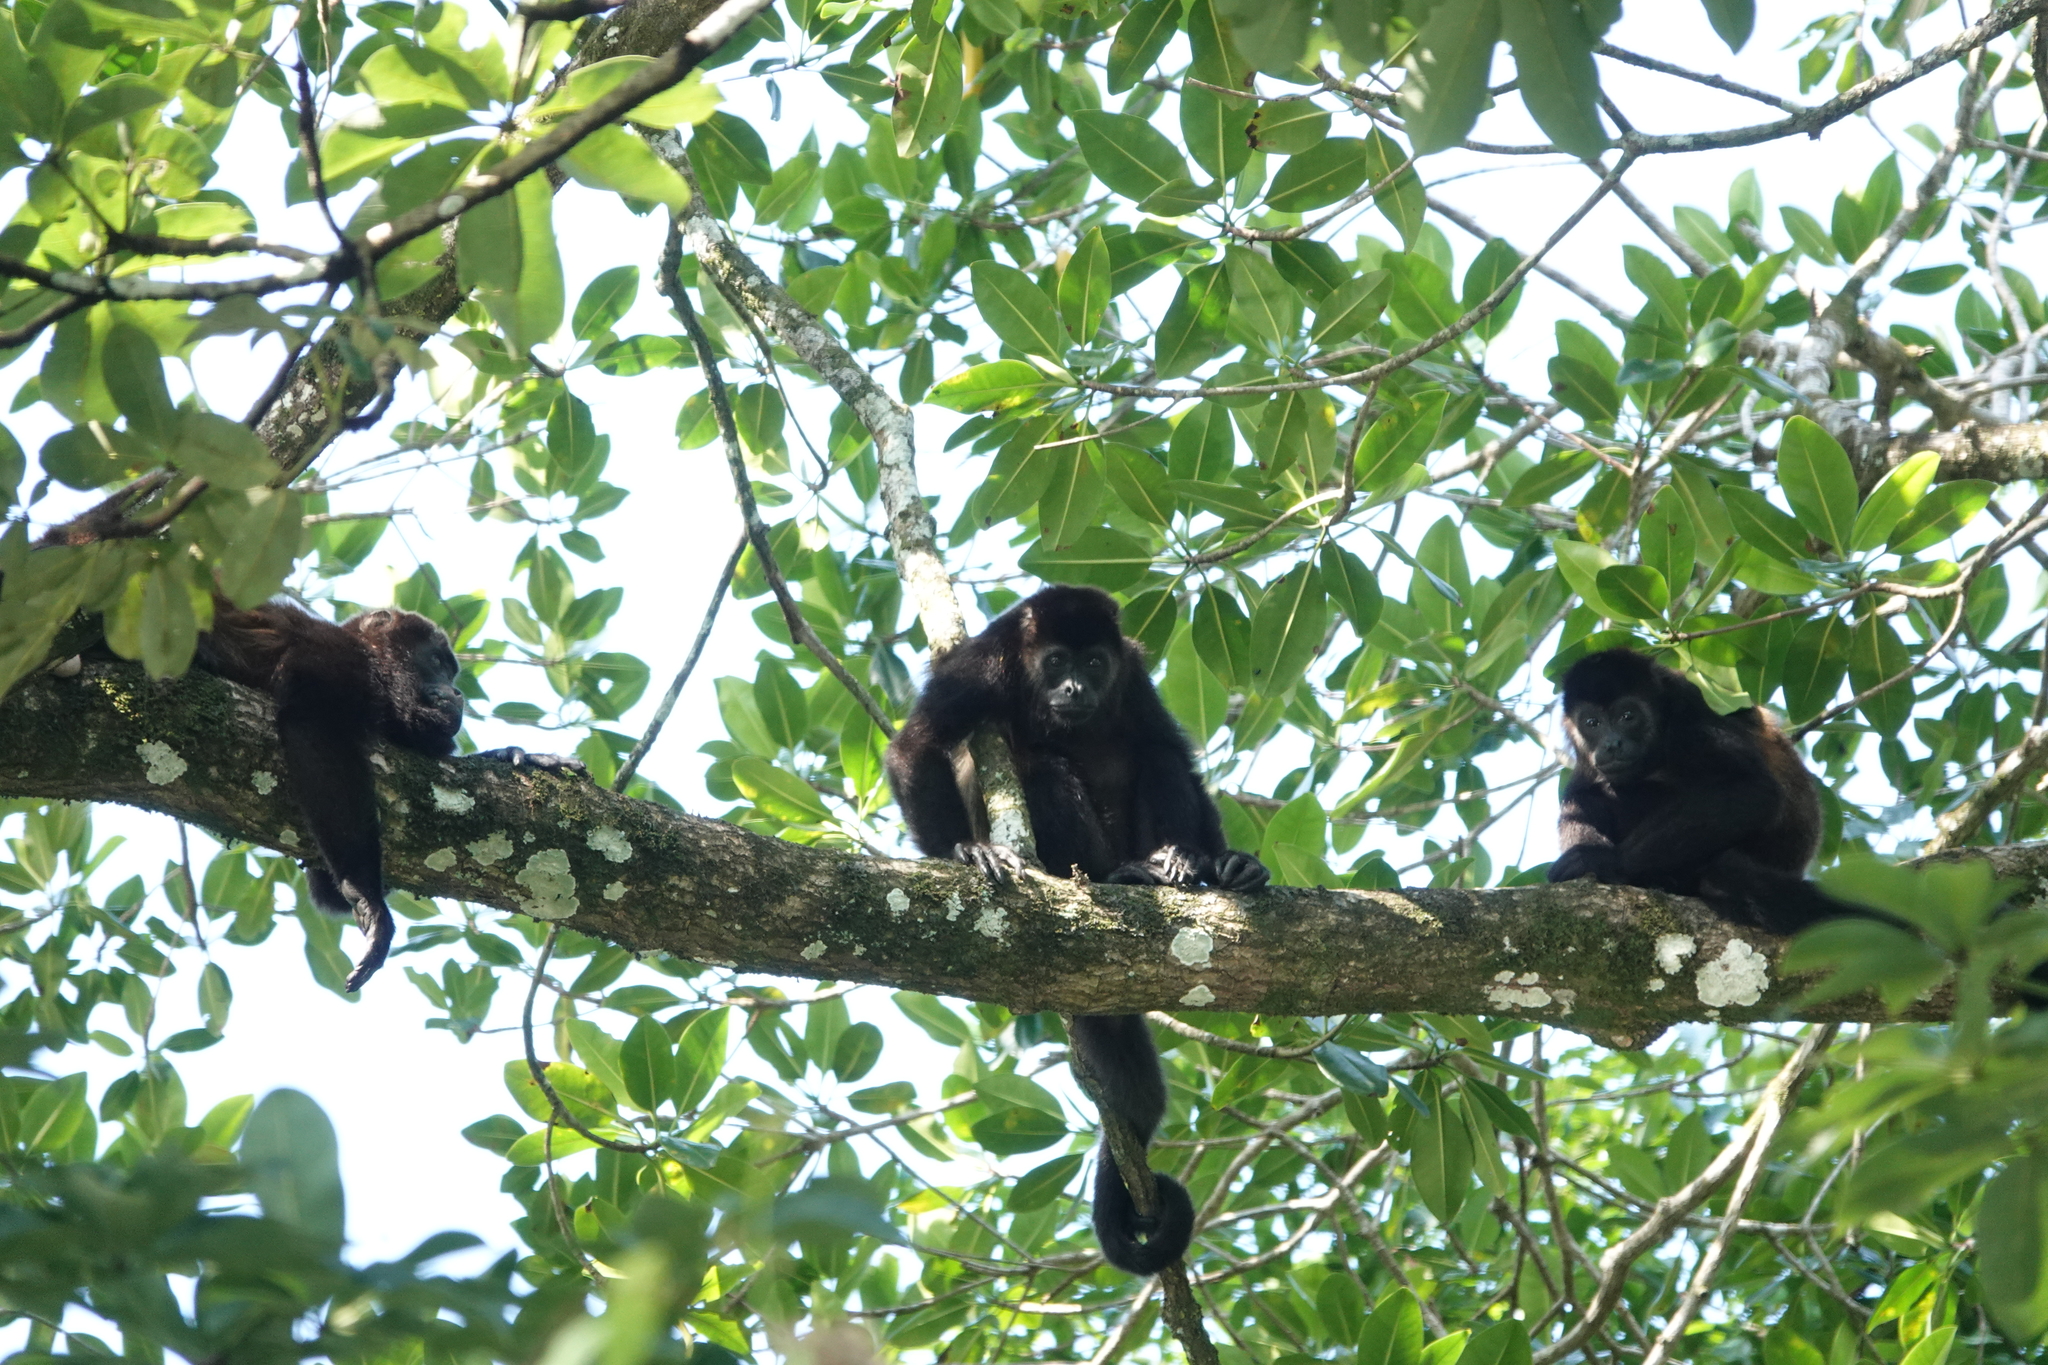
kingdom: Animalia
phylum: Chordata
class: Mammalia
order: Primates
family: Atelidae
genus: Alouatta
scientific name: Alouatta palliata
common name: Mantled howler
